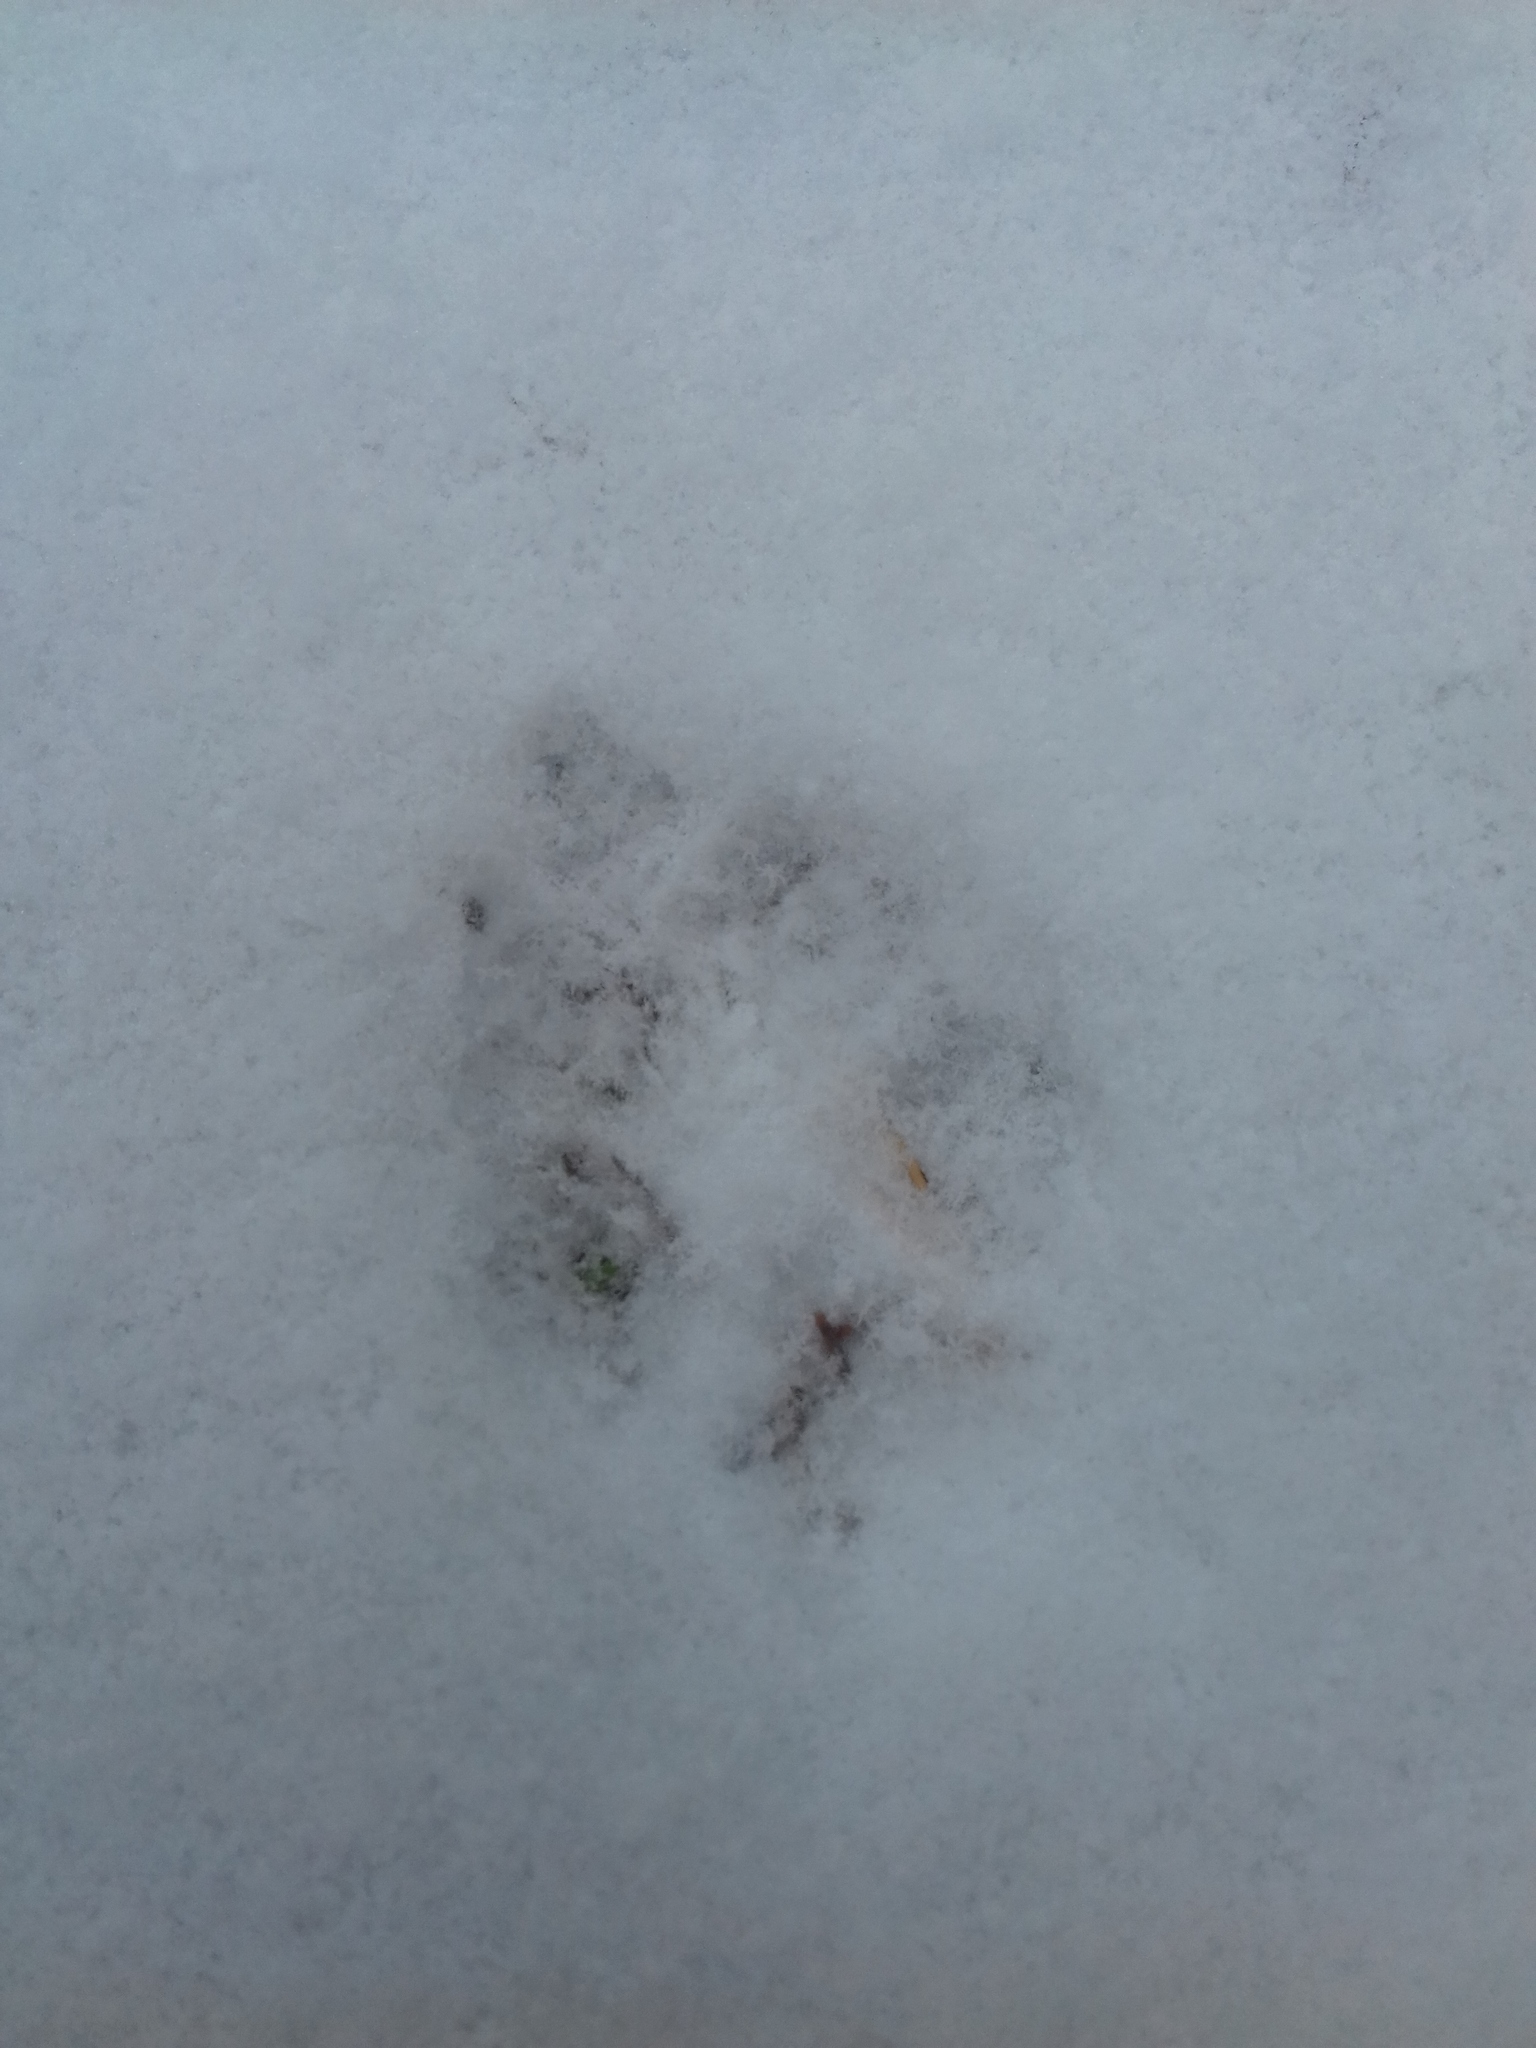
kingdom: Animalia
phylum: Chordata
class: Mammalia
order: Carnivora
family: Canidae
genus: Vulpes
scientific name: Vulpes vulpes
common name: Red fox
